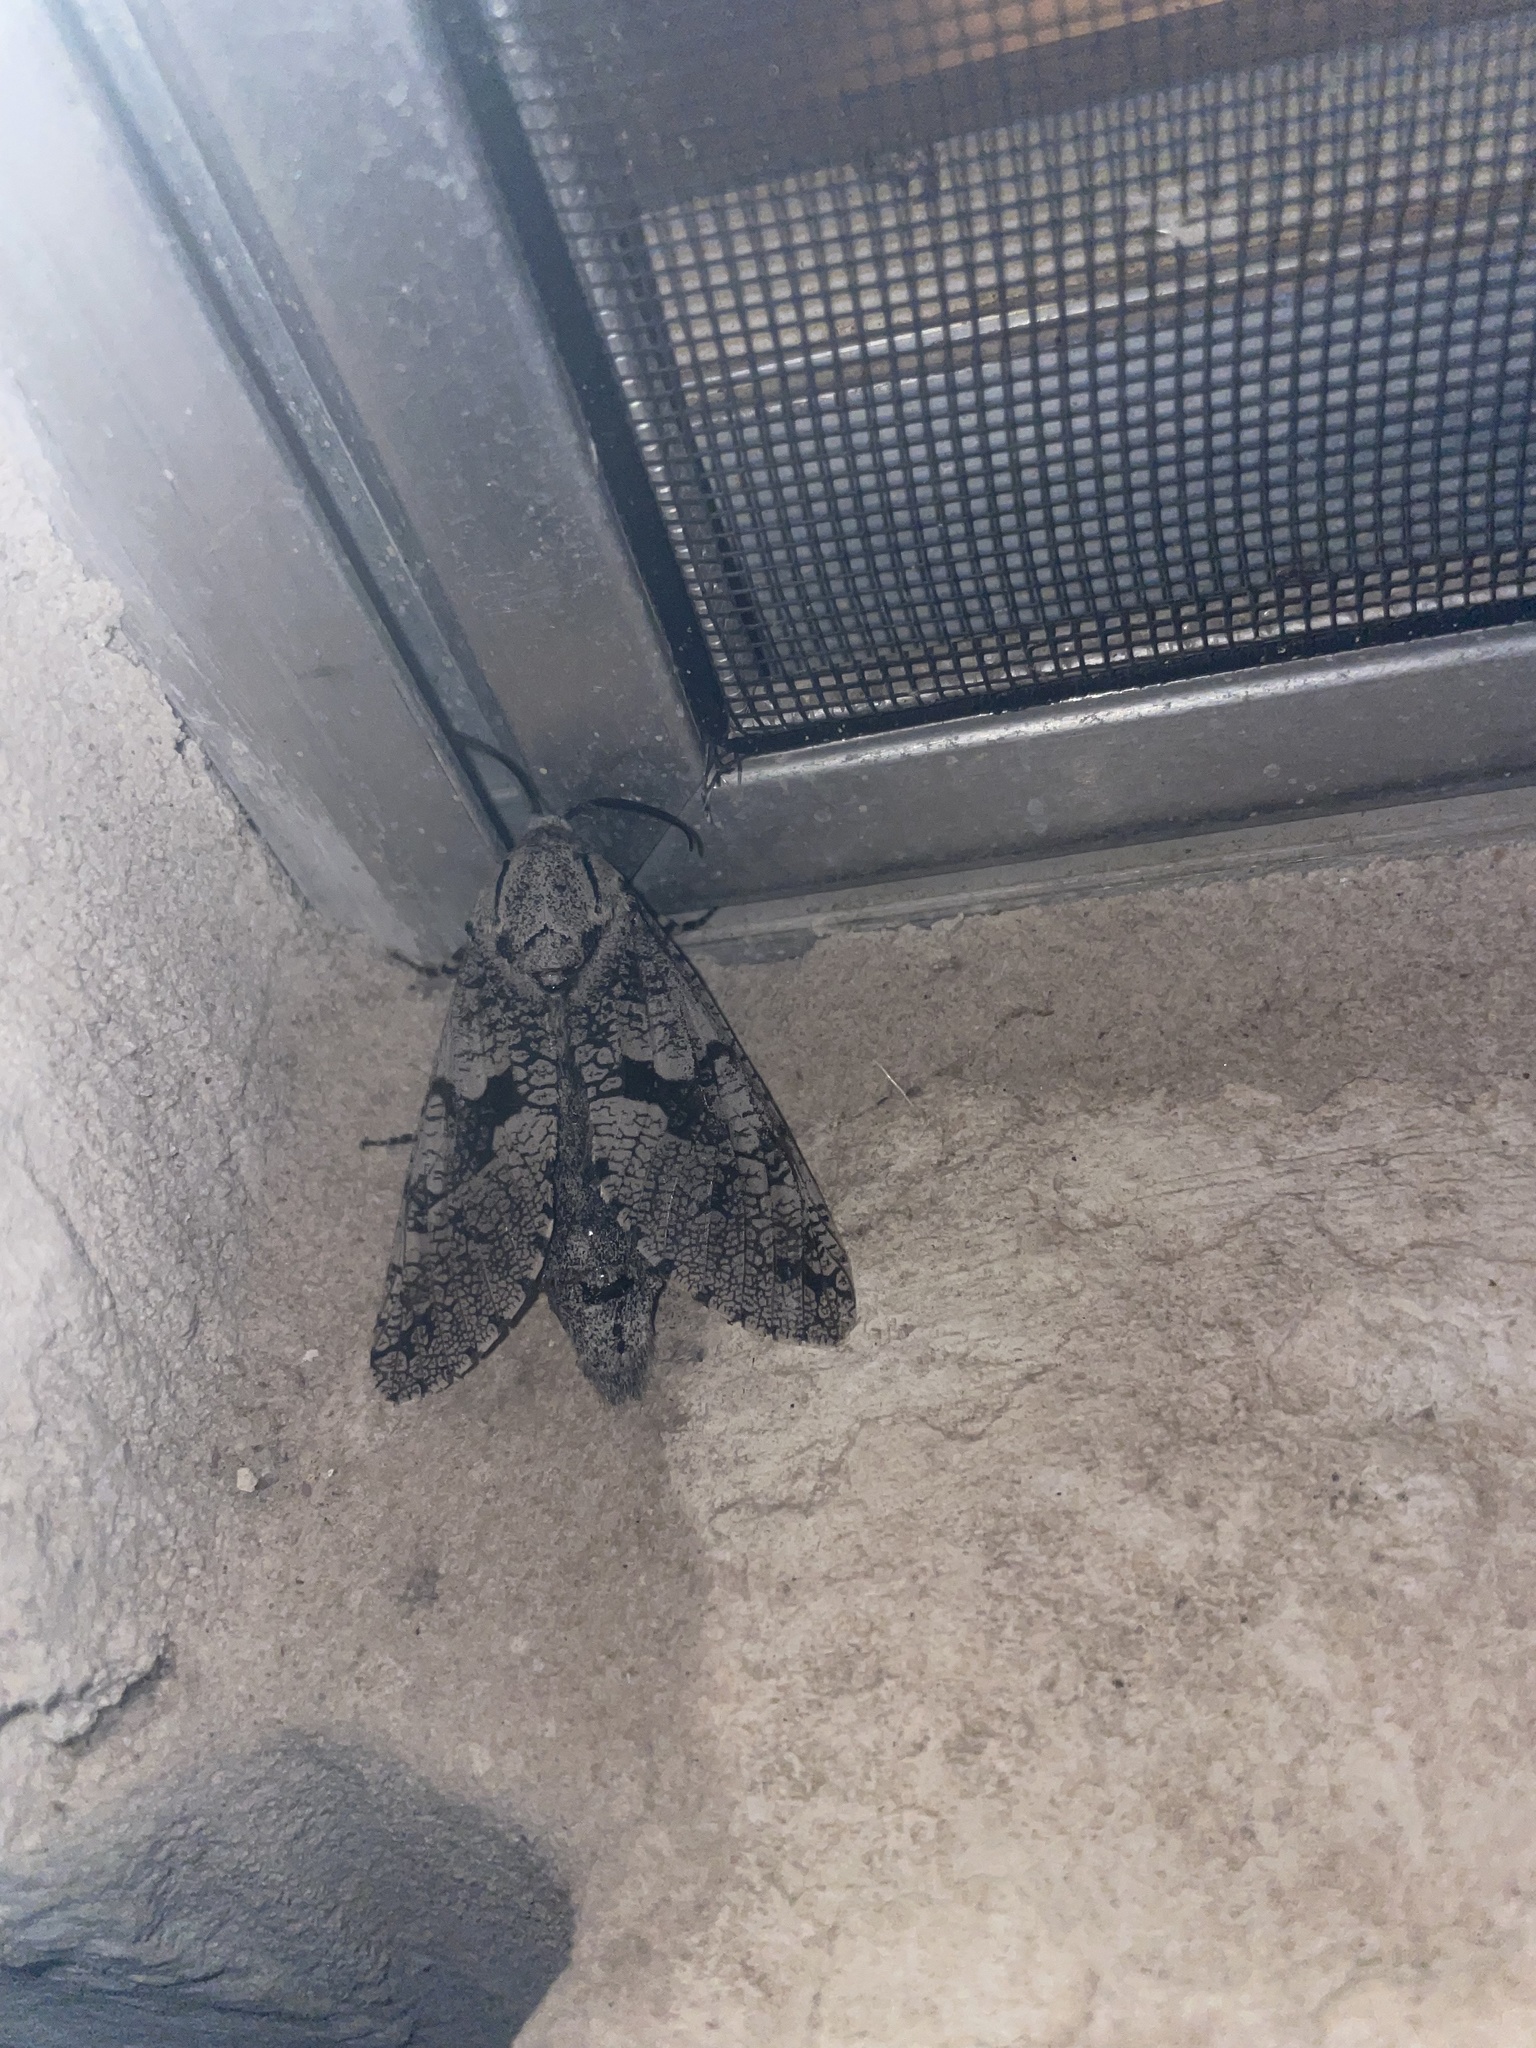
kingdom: Animalia
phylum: Arthropoda
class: Insecta
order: Lepidoptera
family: Cossidae
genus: Prionoxystus
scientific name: Prionoxystus robiniae
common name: Carpenterworm
